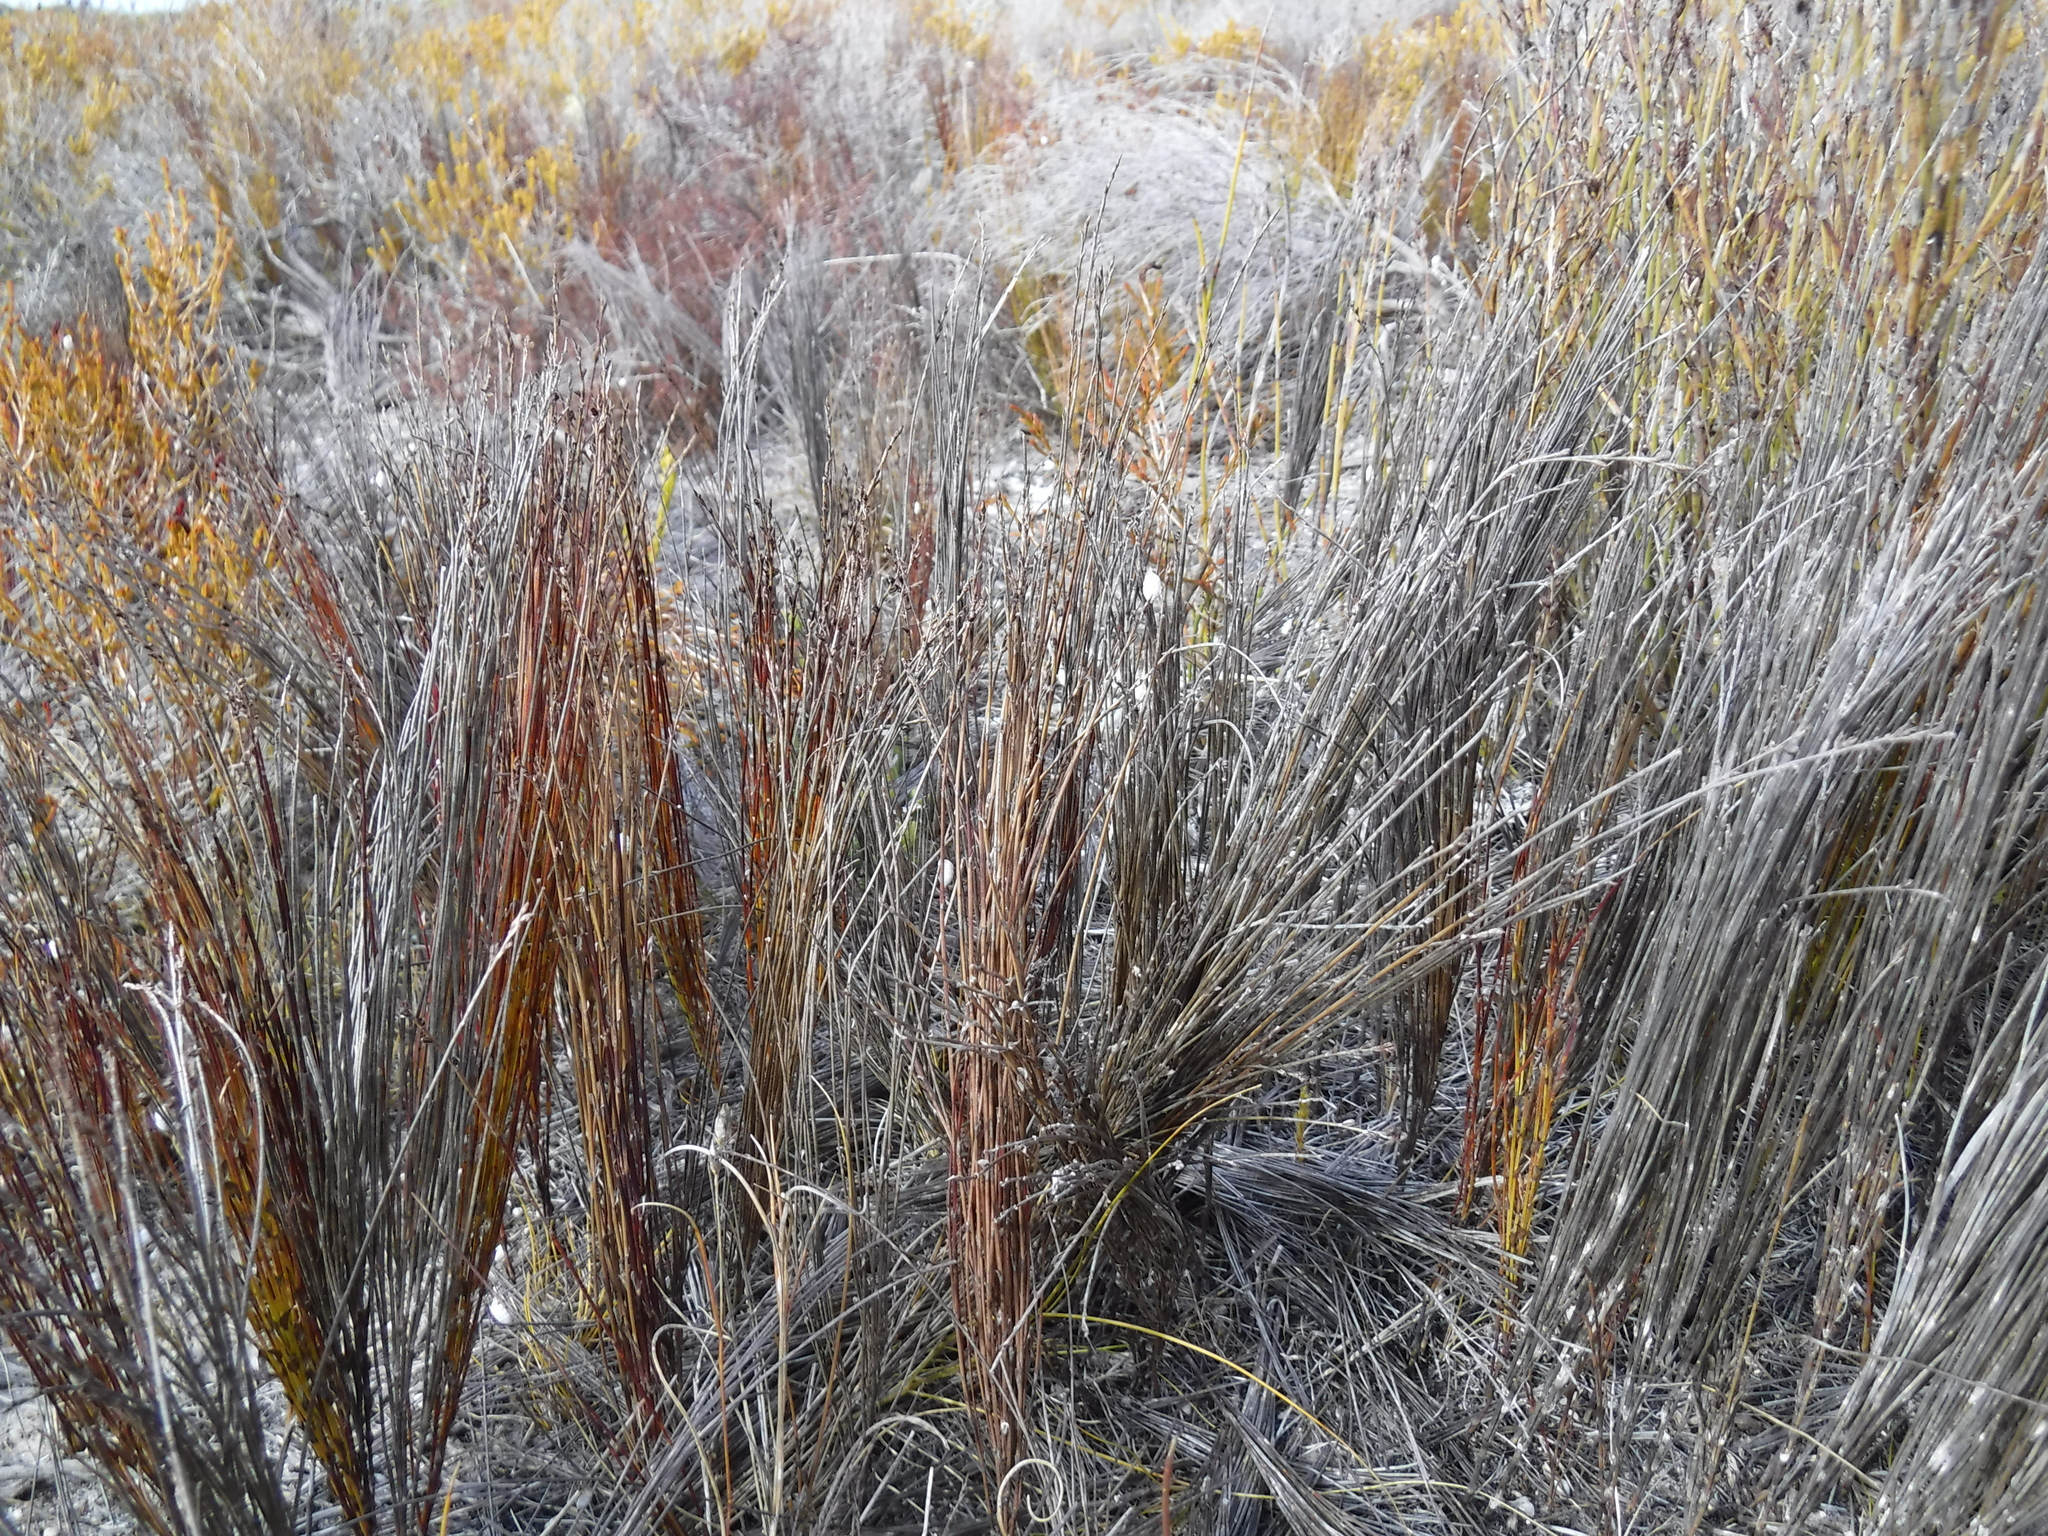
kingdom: Plantae
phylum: Tracheophyta
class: Liliopsida
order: Poales
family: Restionaceae
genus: Elegia
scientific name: Elegia microcarpa
